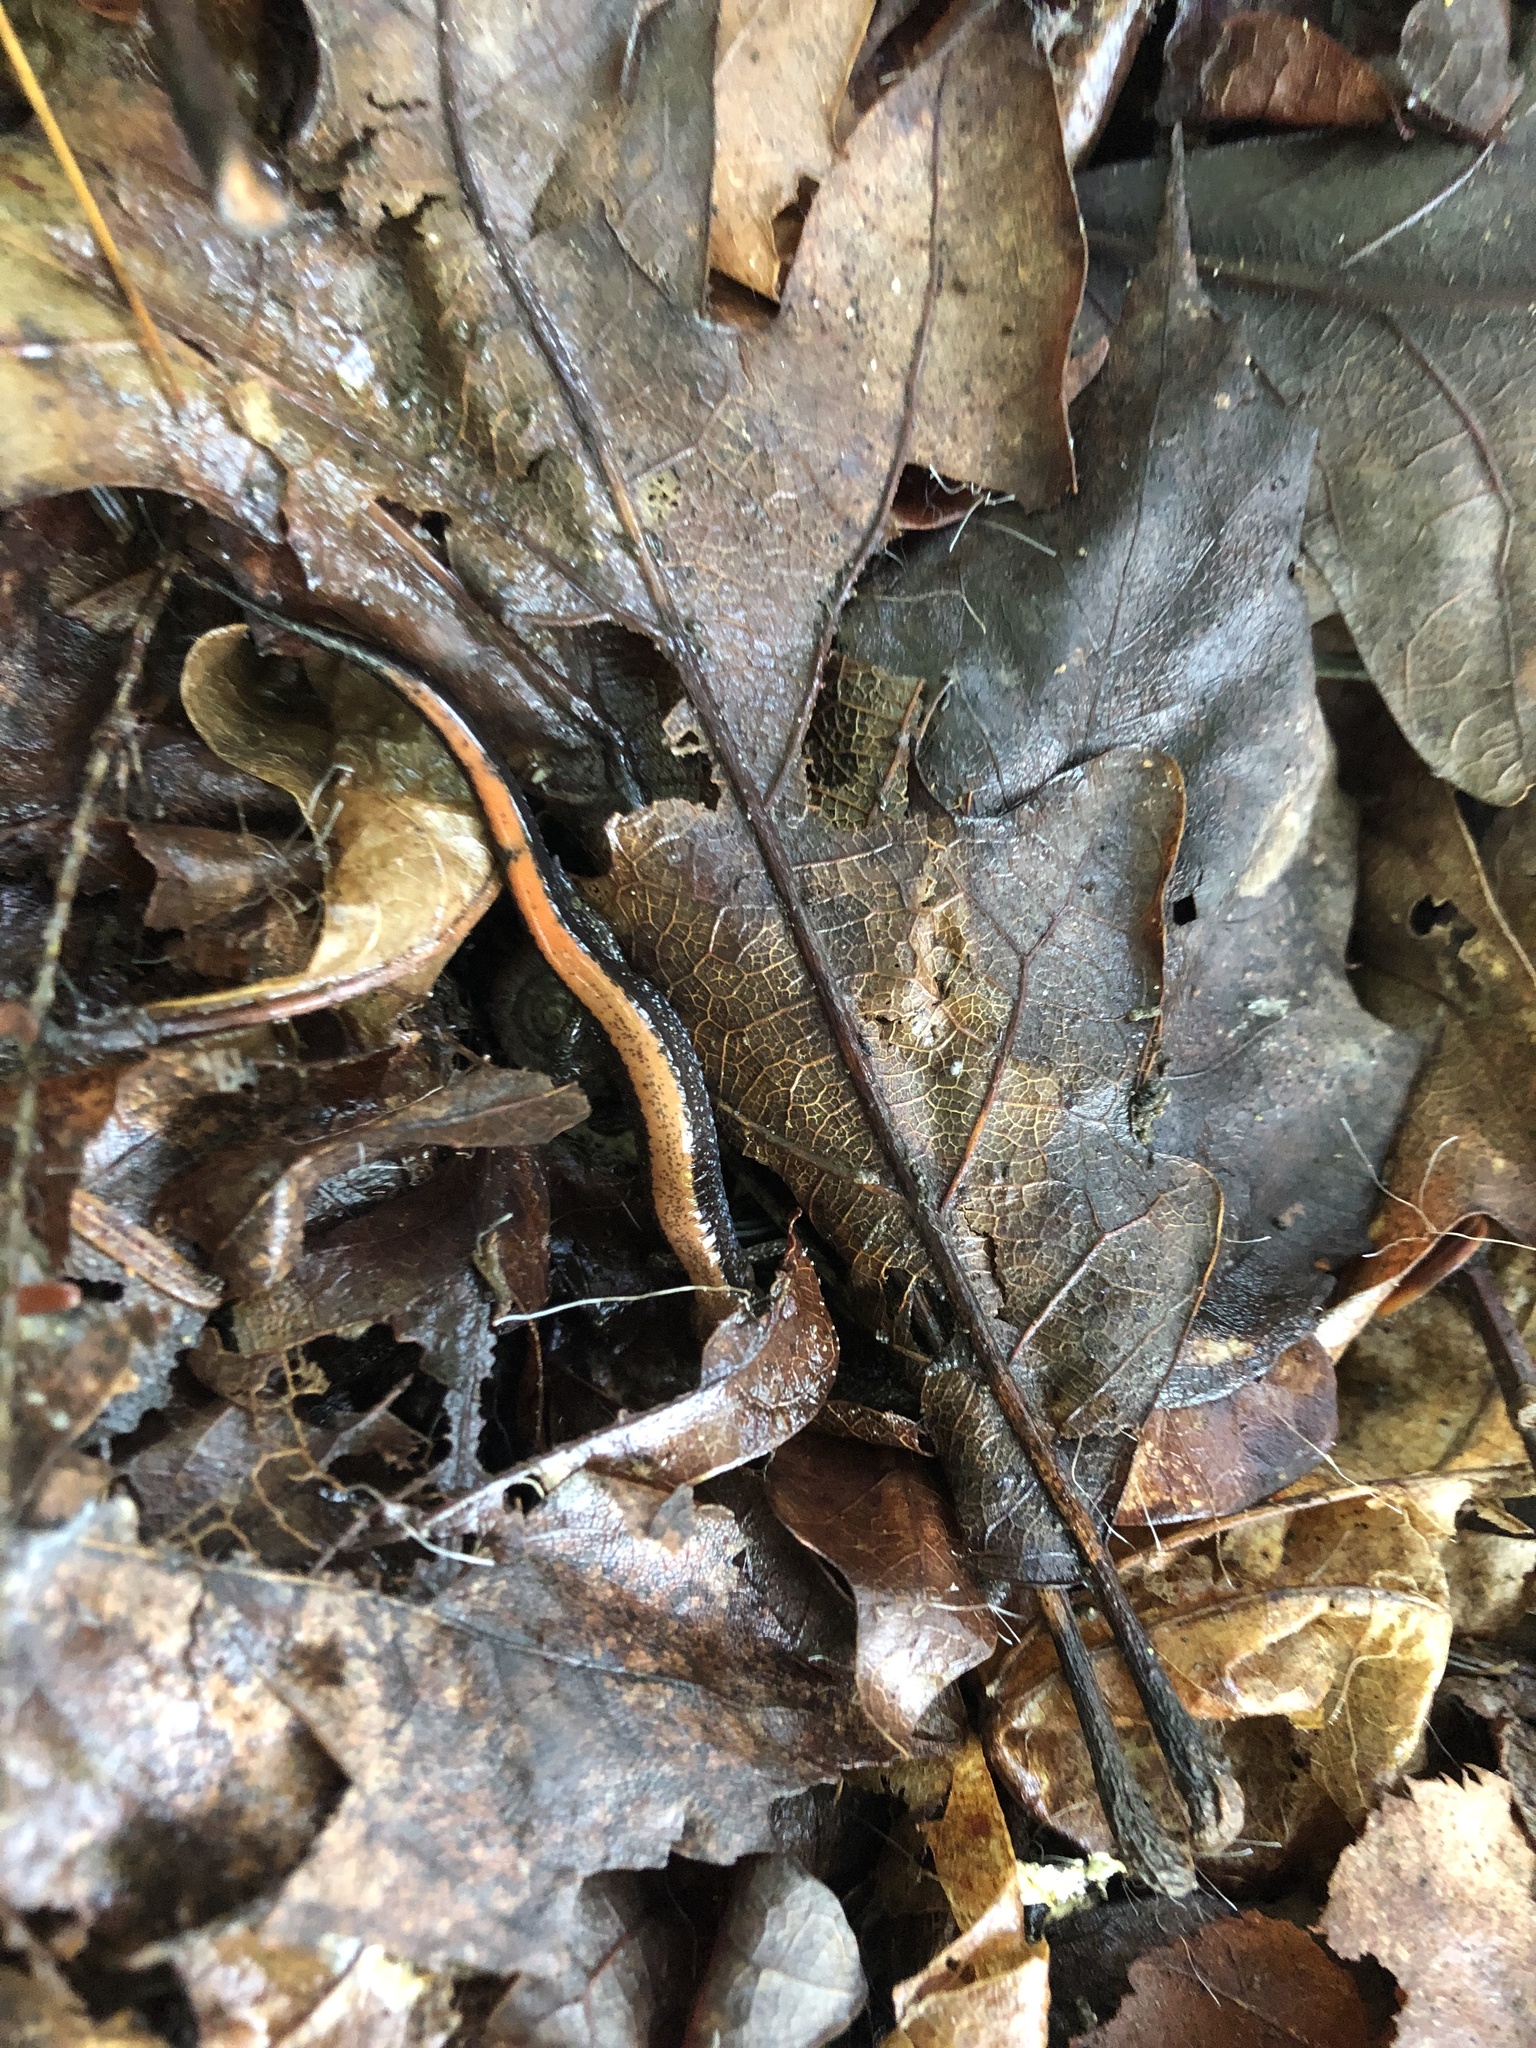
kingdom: Animalia
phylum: Chordata
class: Amphibia
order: Caudata
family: Plethodontidae
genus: Plethodon
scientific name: Plethodon cinereus
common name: Redback salamander
